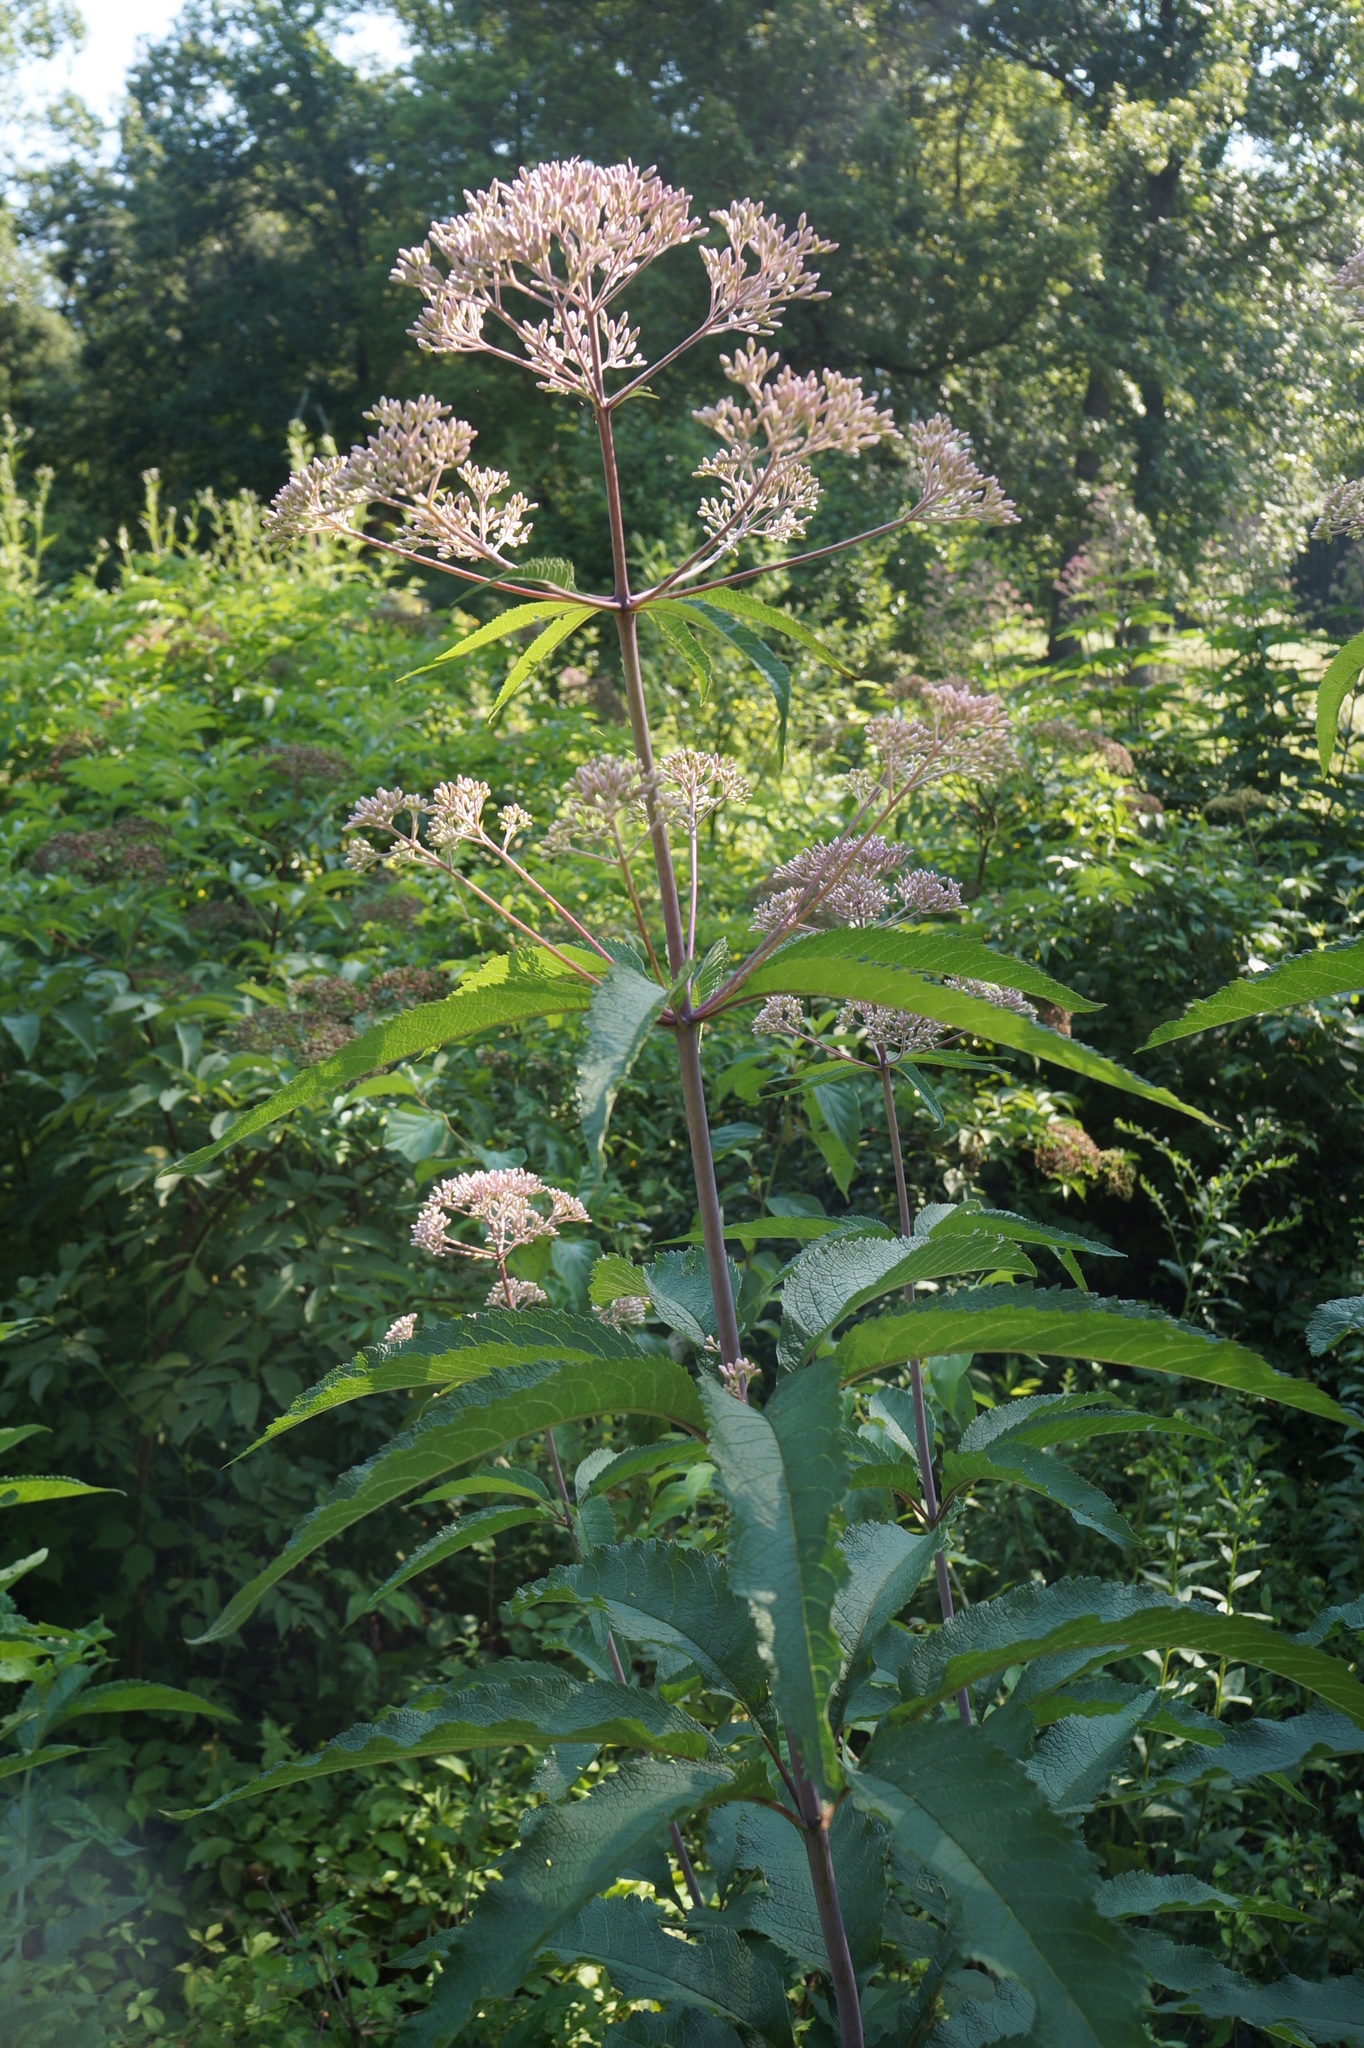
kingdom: Plantae
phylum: Tracheophyta
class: Magnoliopsida
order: Asterales
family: Asteraceae
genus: Eutrochium
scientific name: Eutrochium fistulosum
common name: Trumpetweed
